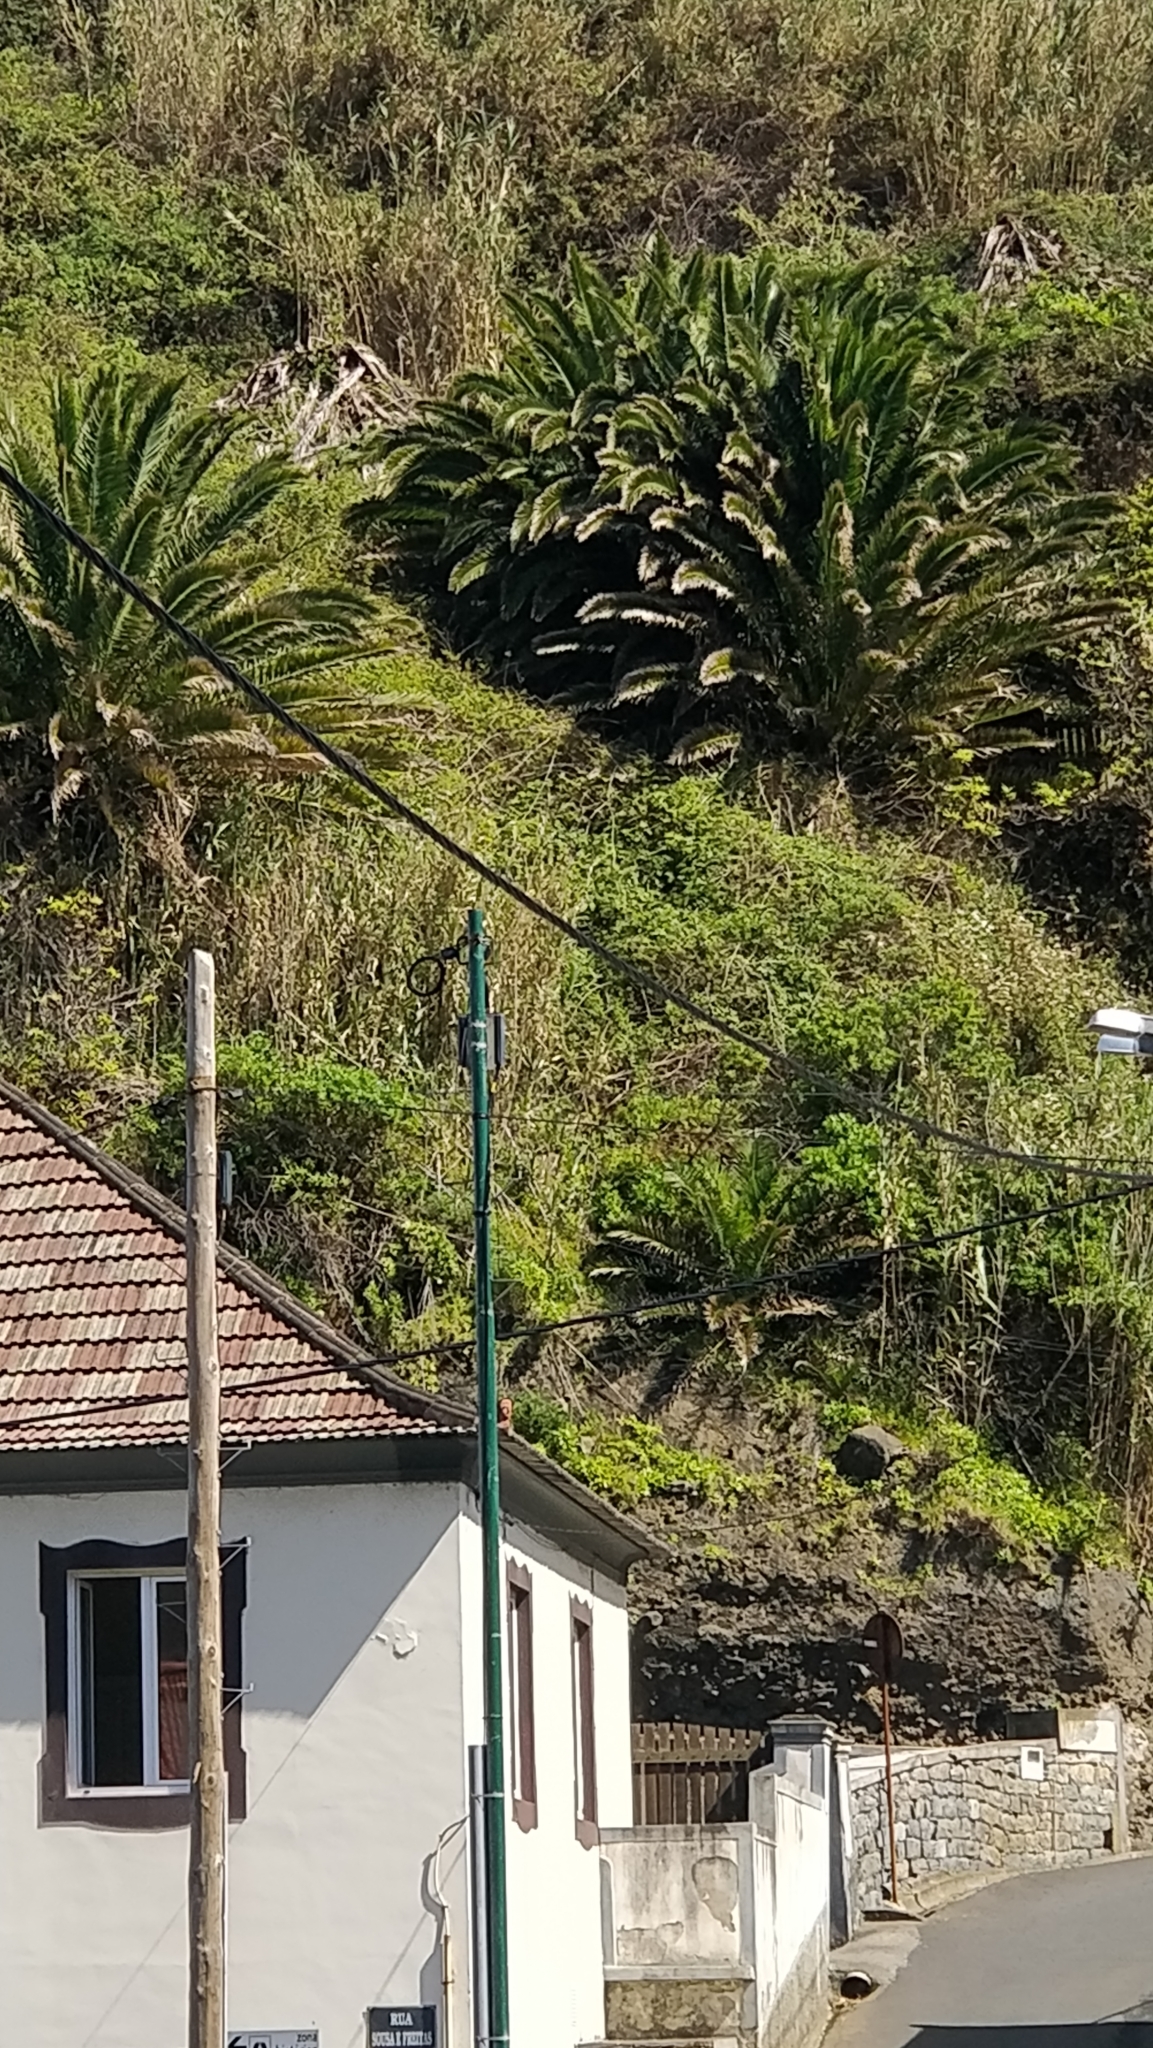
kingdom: Plantae
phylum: Tracheophyta
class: Liliopsida
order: Arecales
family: Arecaceae
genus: Phoenix
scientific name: Phoenix canariensis
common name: Canary island date palm
